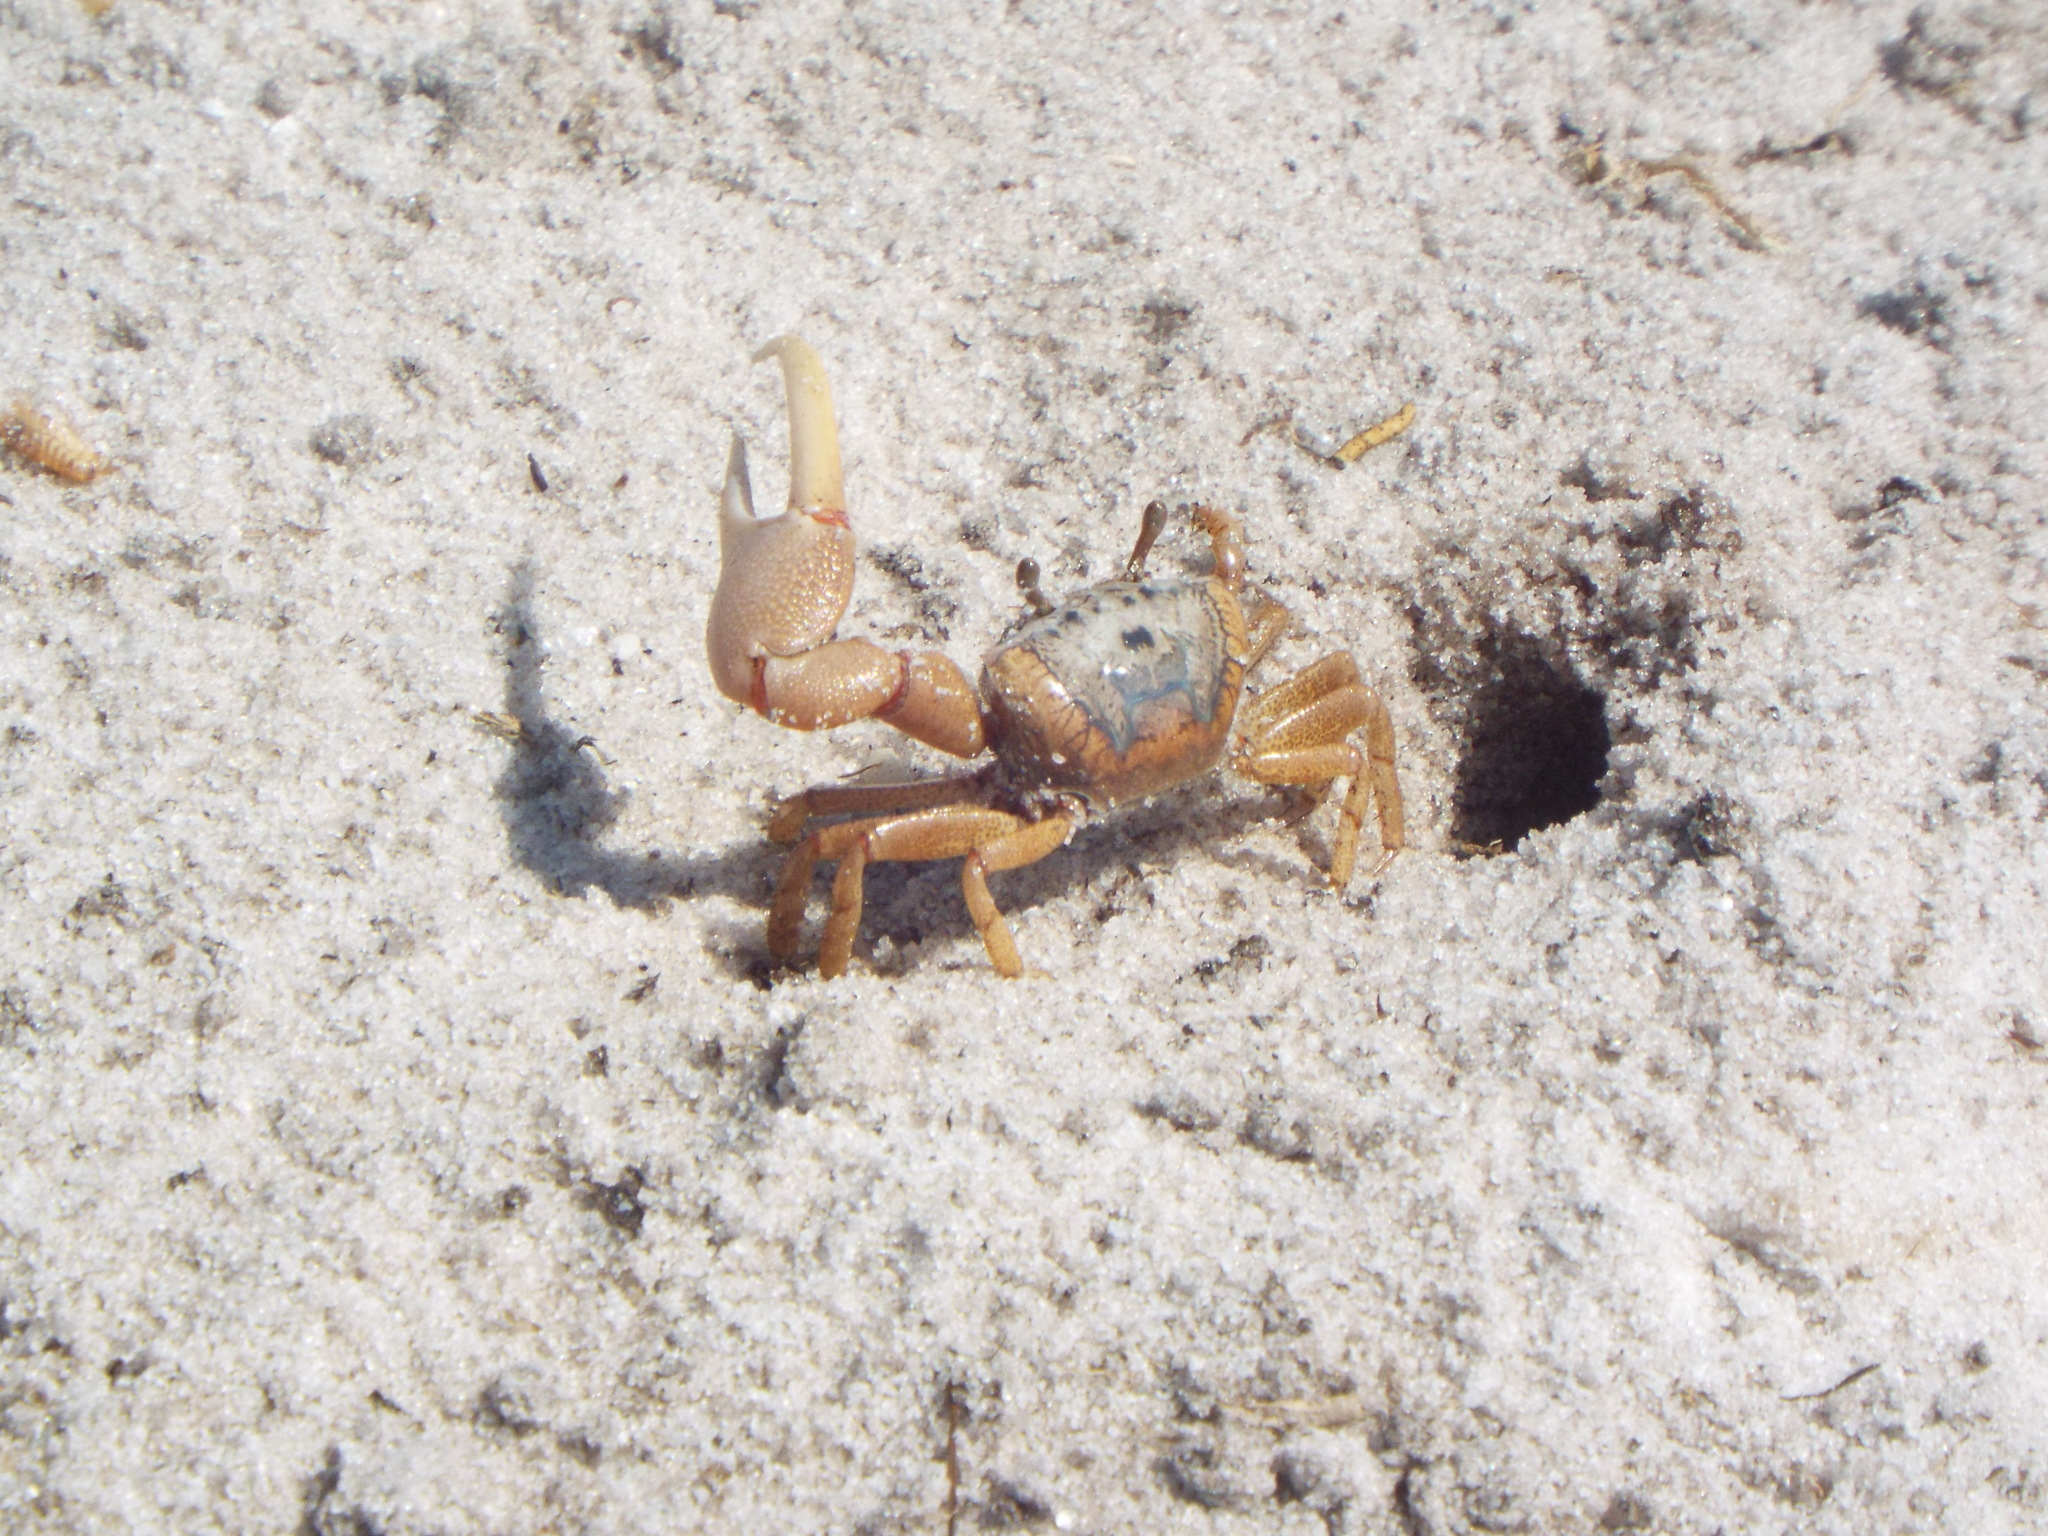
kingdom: Animalia
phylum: Arthropoda
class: Malacostraca
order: Decapoda
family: Ocypodidae
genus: Leptuca
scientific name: Leptuca pugilator
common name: Atlantic sand fiddler crab
